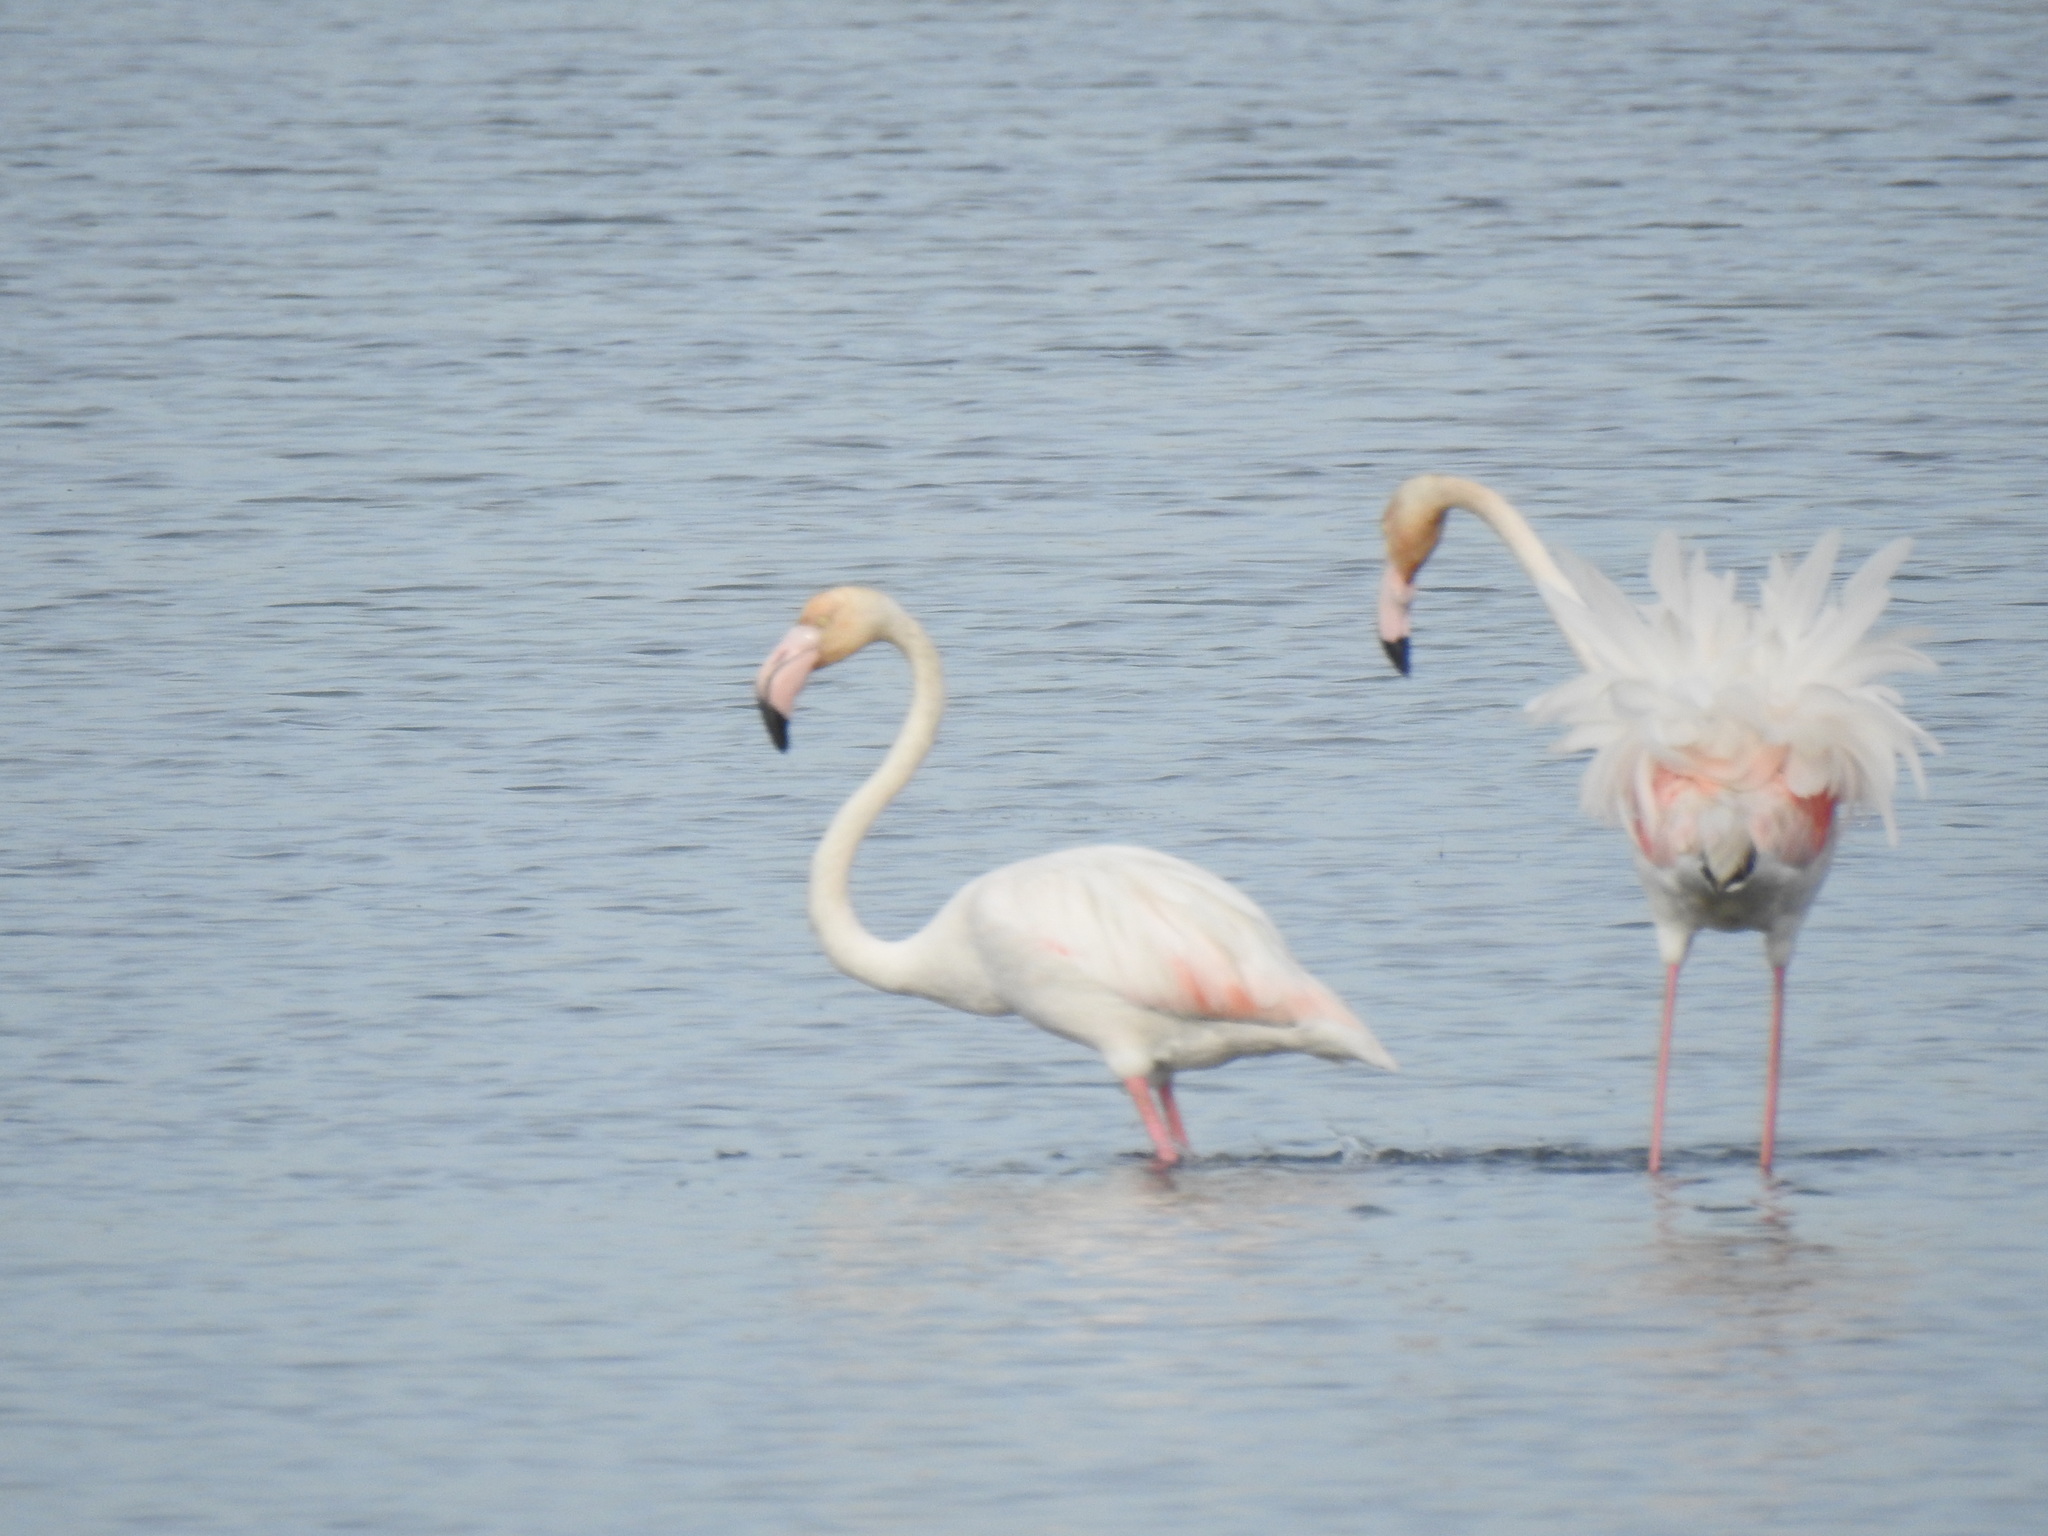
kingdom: Animalia
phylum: Chordata
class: Aves
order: Phoenicopteriformes
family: Phoenicopteridae
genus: Phoenicopterus
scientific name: Phoenicopterus roseus
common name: Greater flamingo
